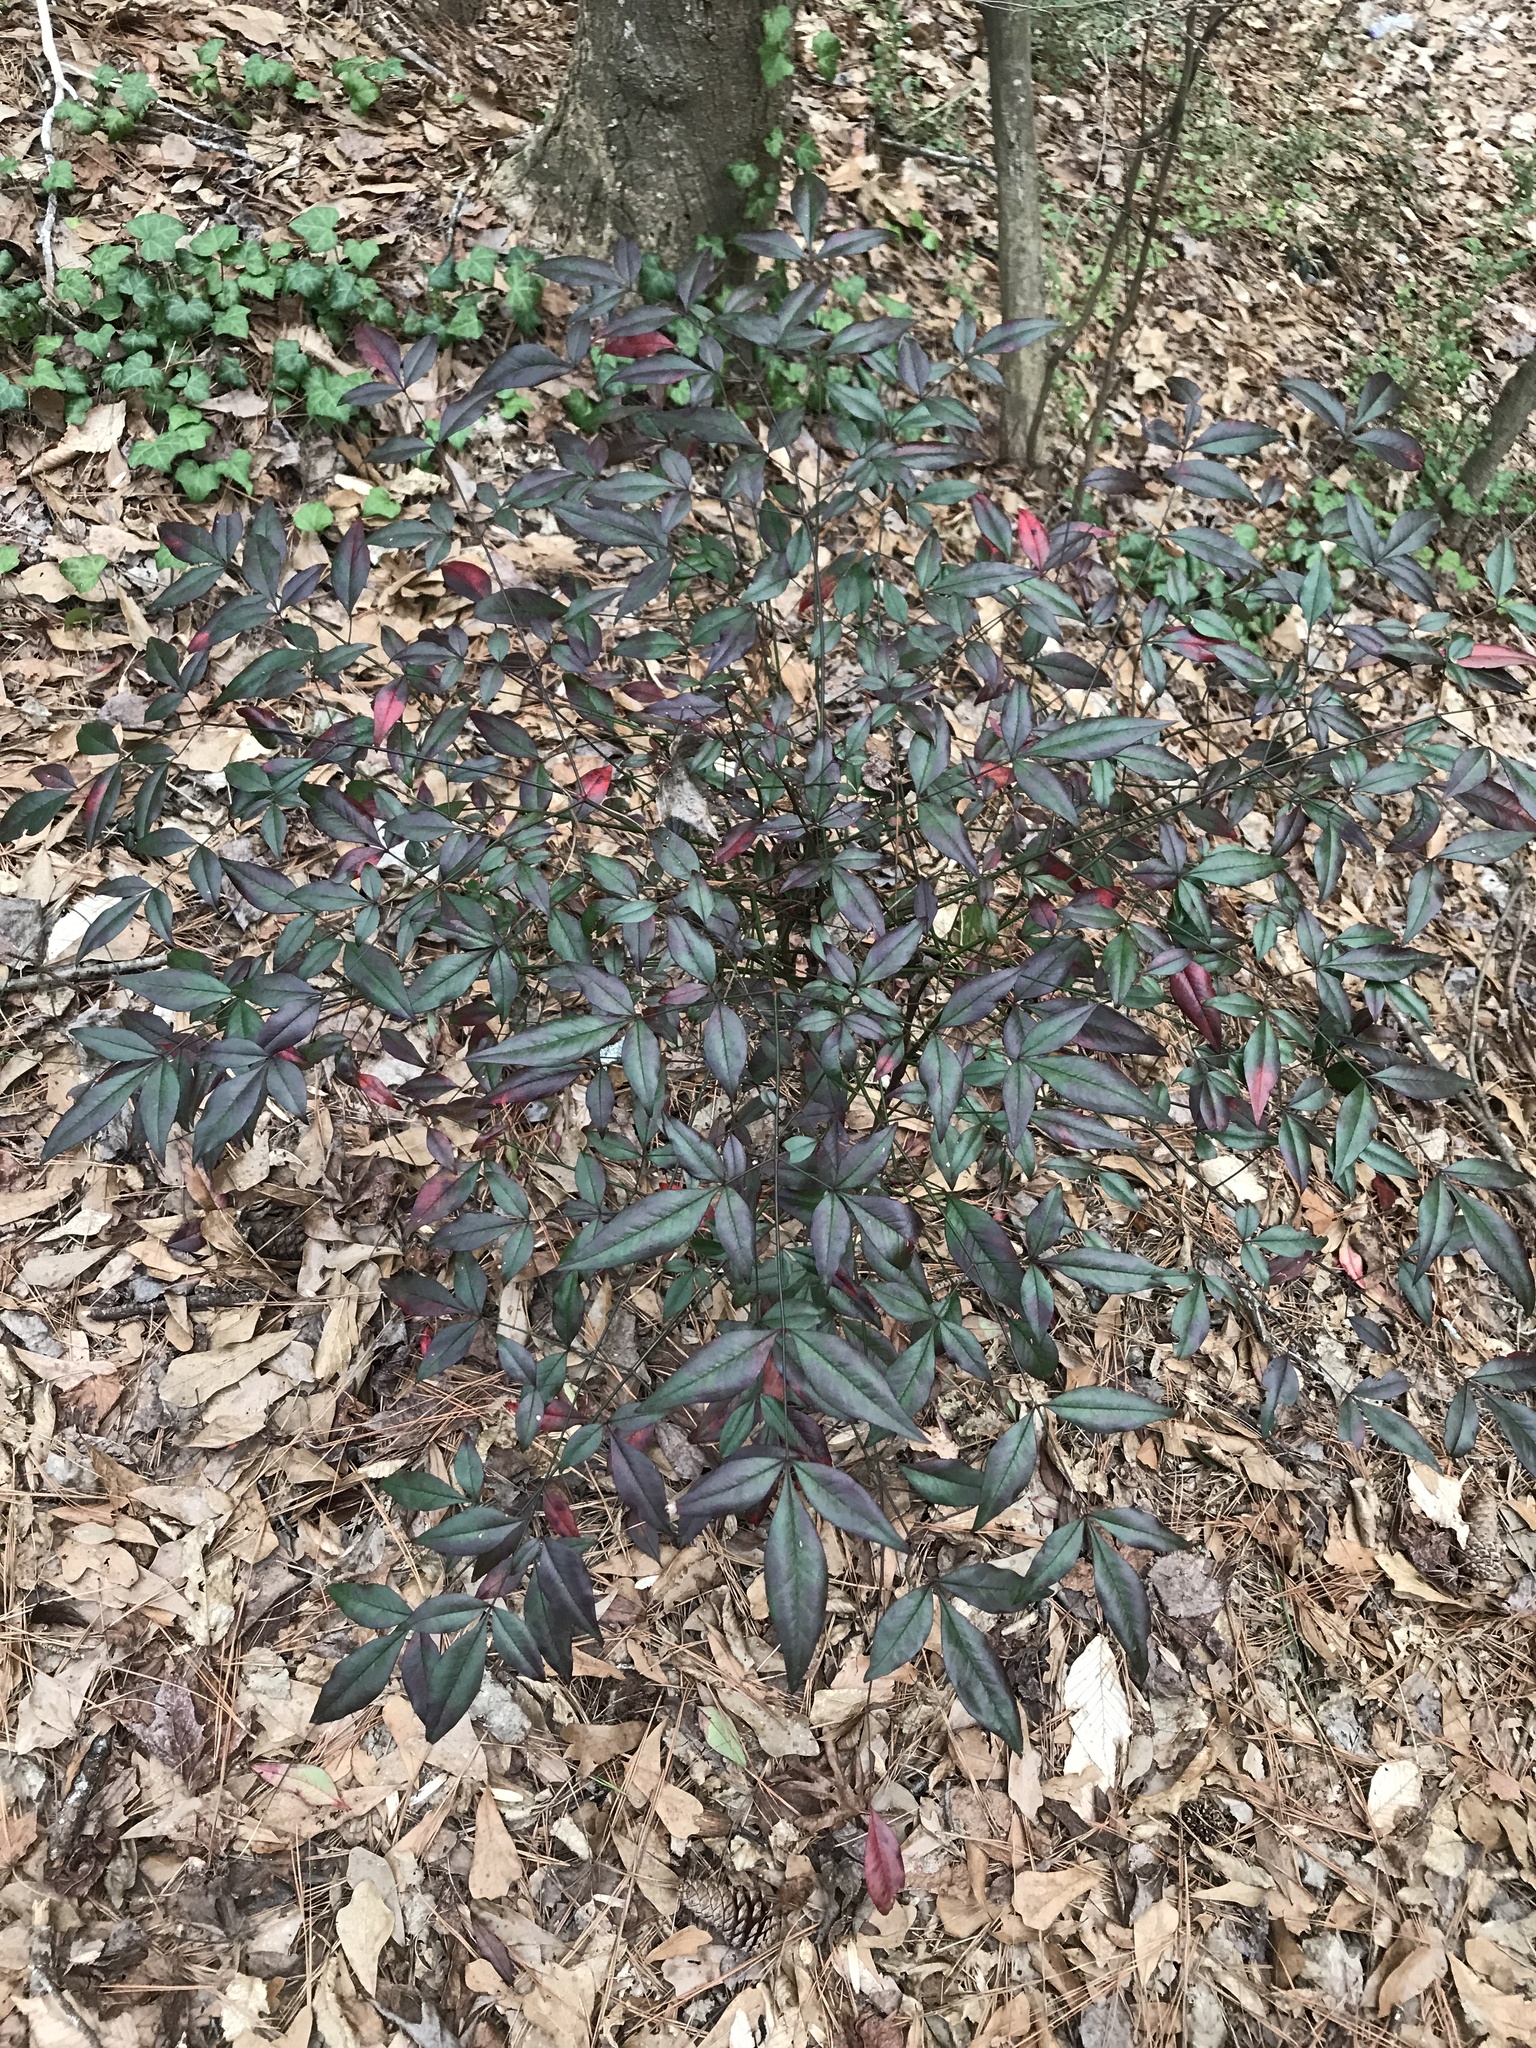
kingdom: Plantae
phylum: Tracheophyta
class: Magnoliopsida
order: Ranunculales
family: Berberidaceae
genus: Nandina
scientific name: Nandina domestica
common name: Sacred bamboo
